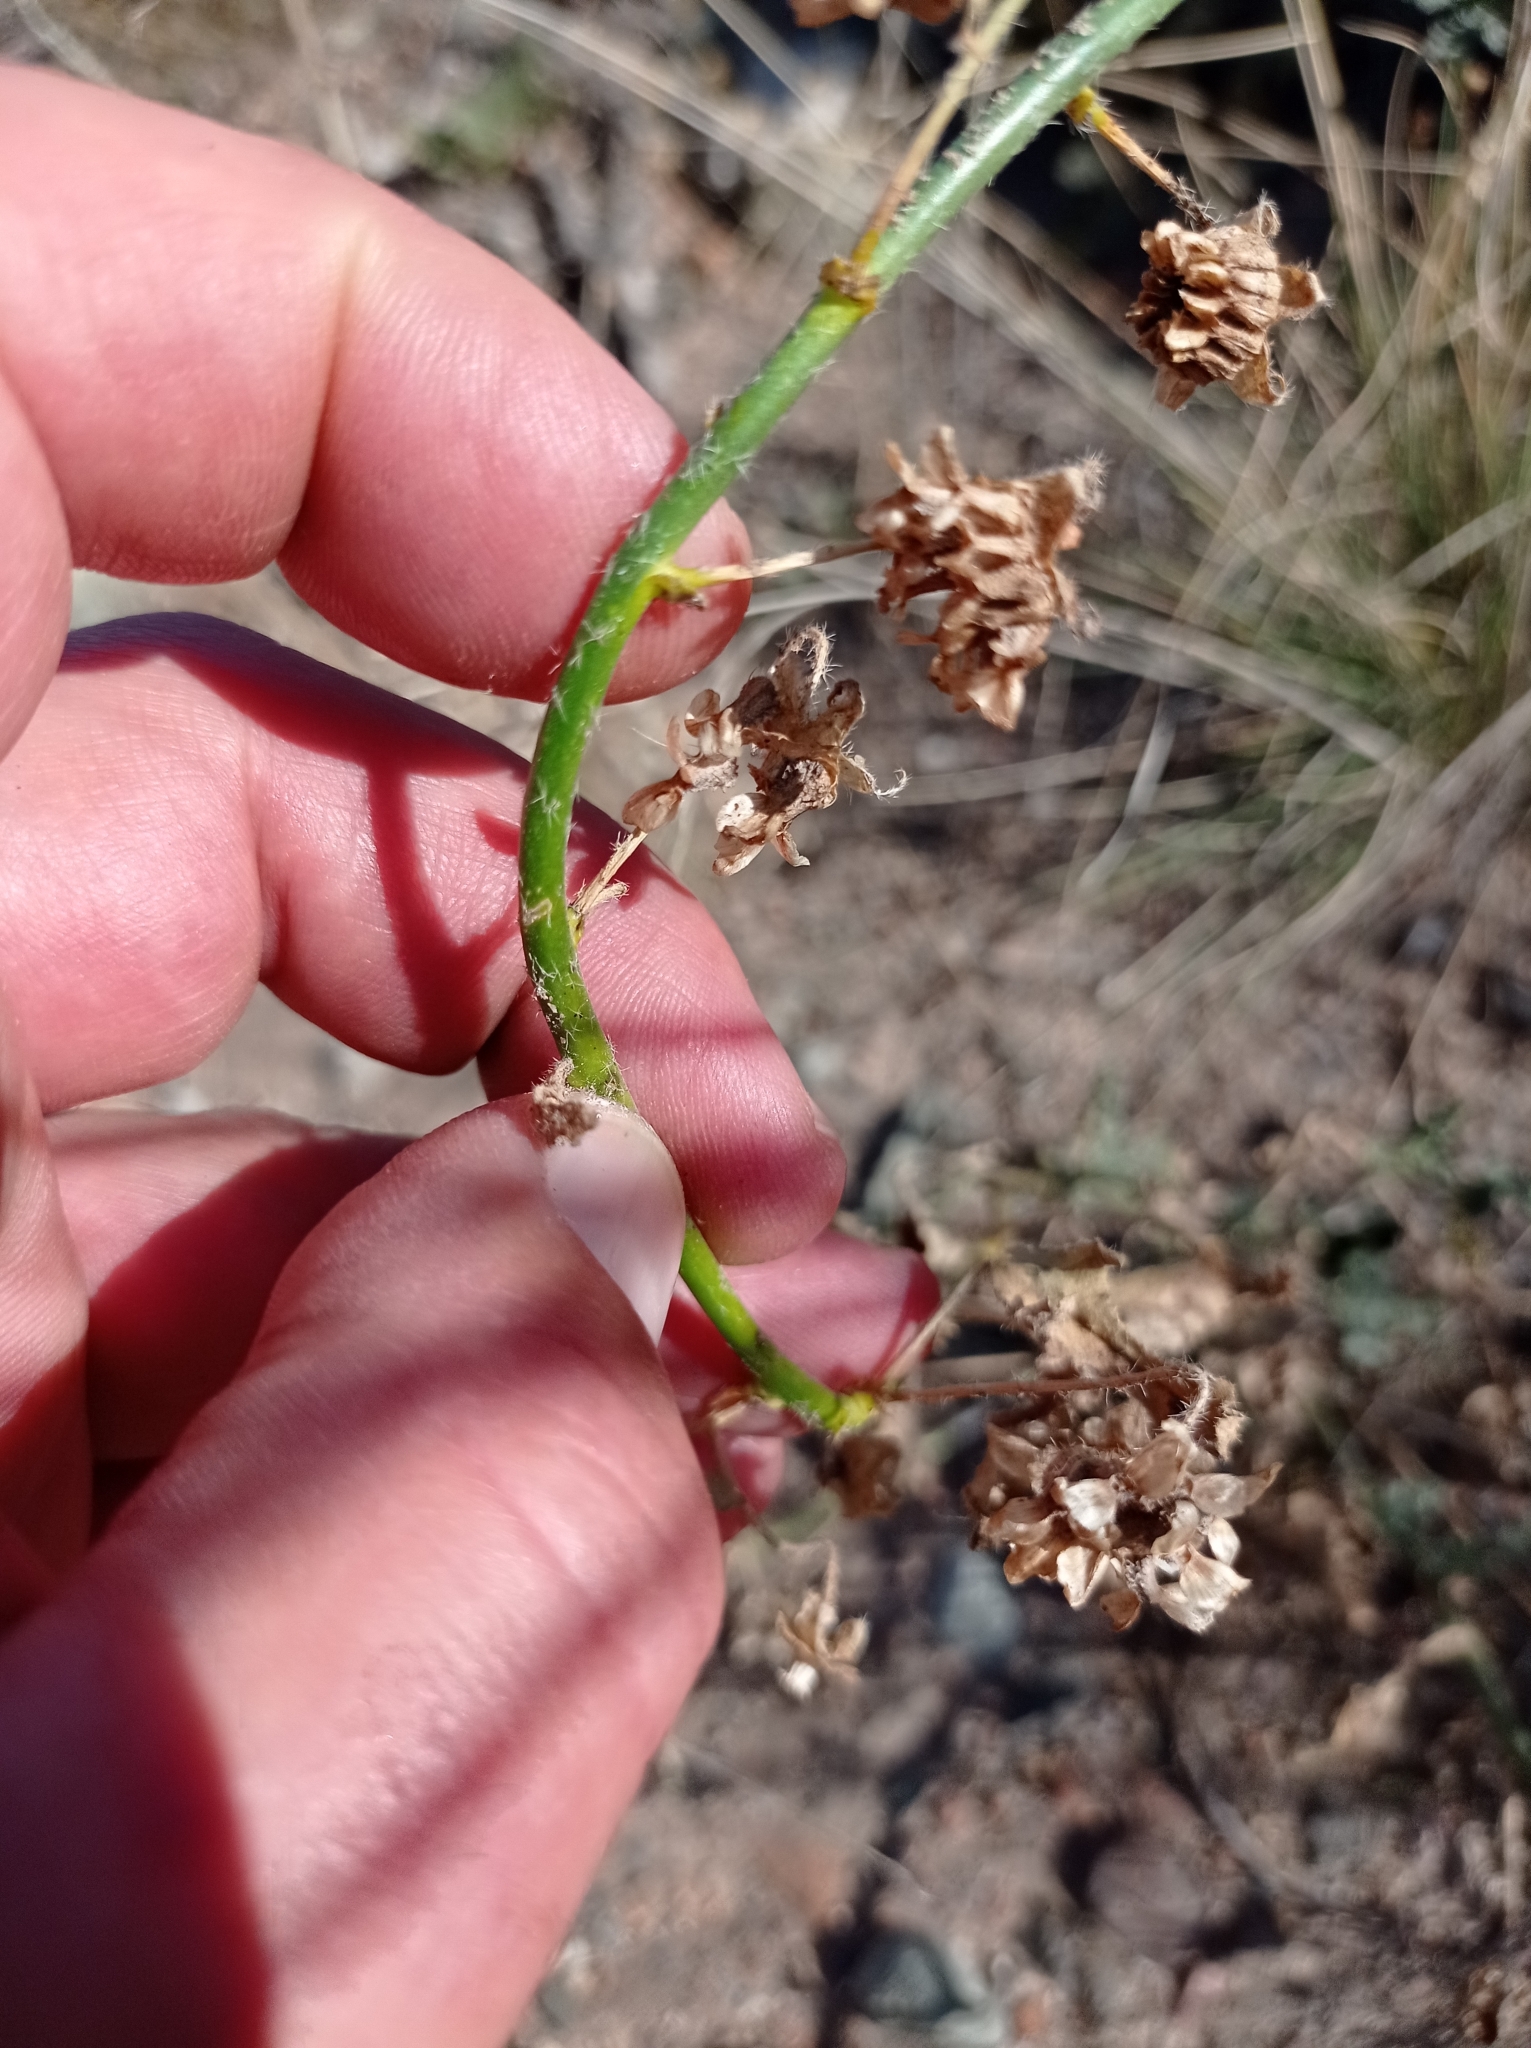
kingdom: Plantae
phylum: Tracheophyta
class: Magnoliopsida
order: Malvales
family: Malvaceae
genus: Lecanophora
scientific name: Lecanophora heterophylla
